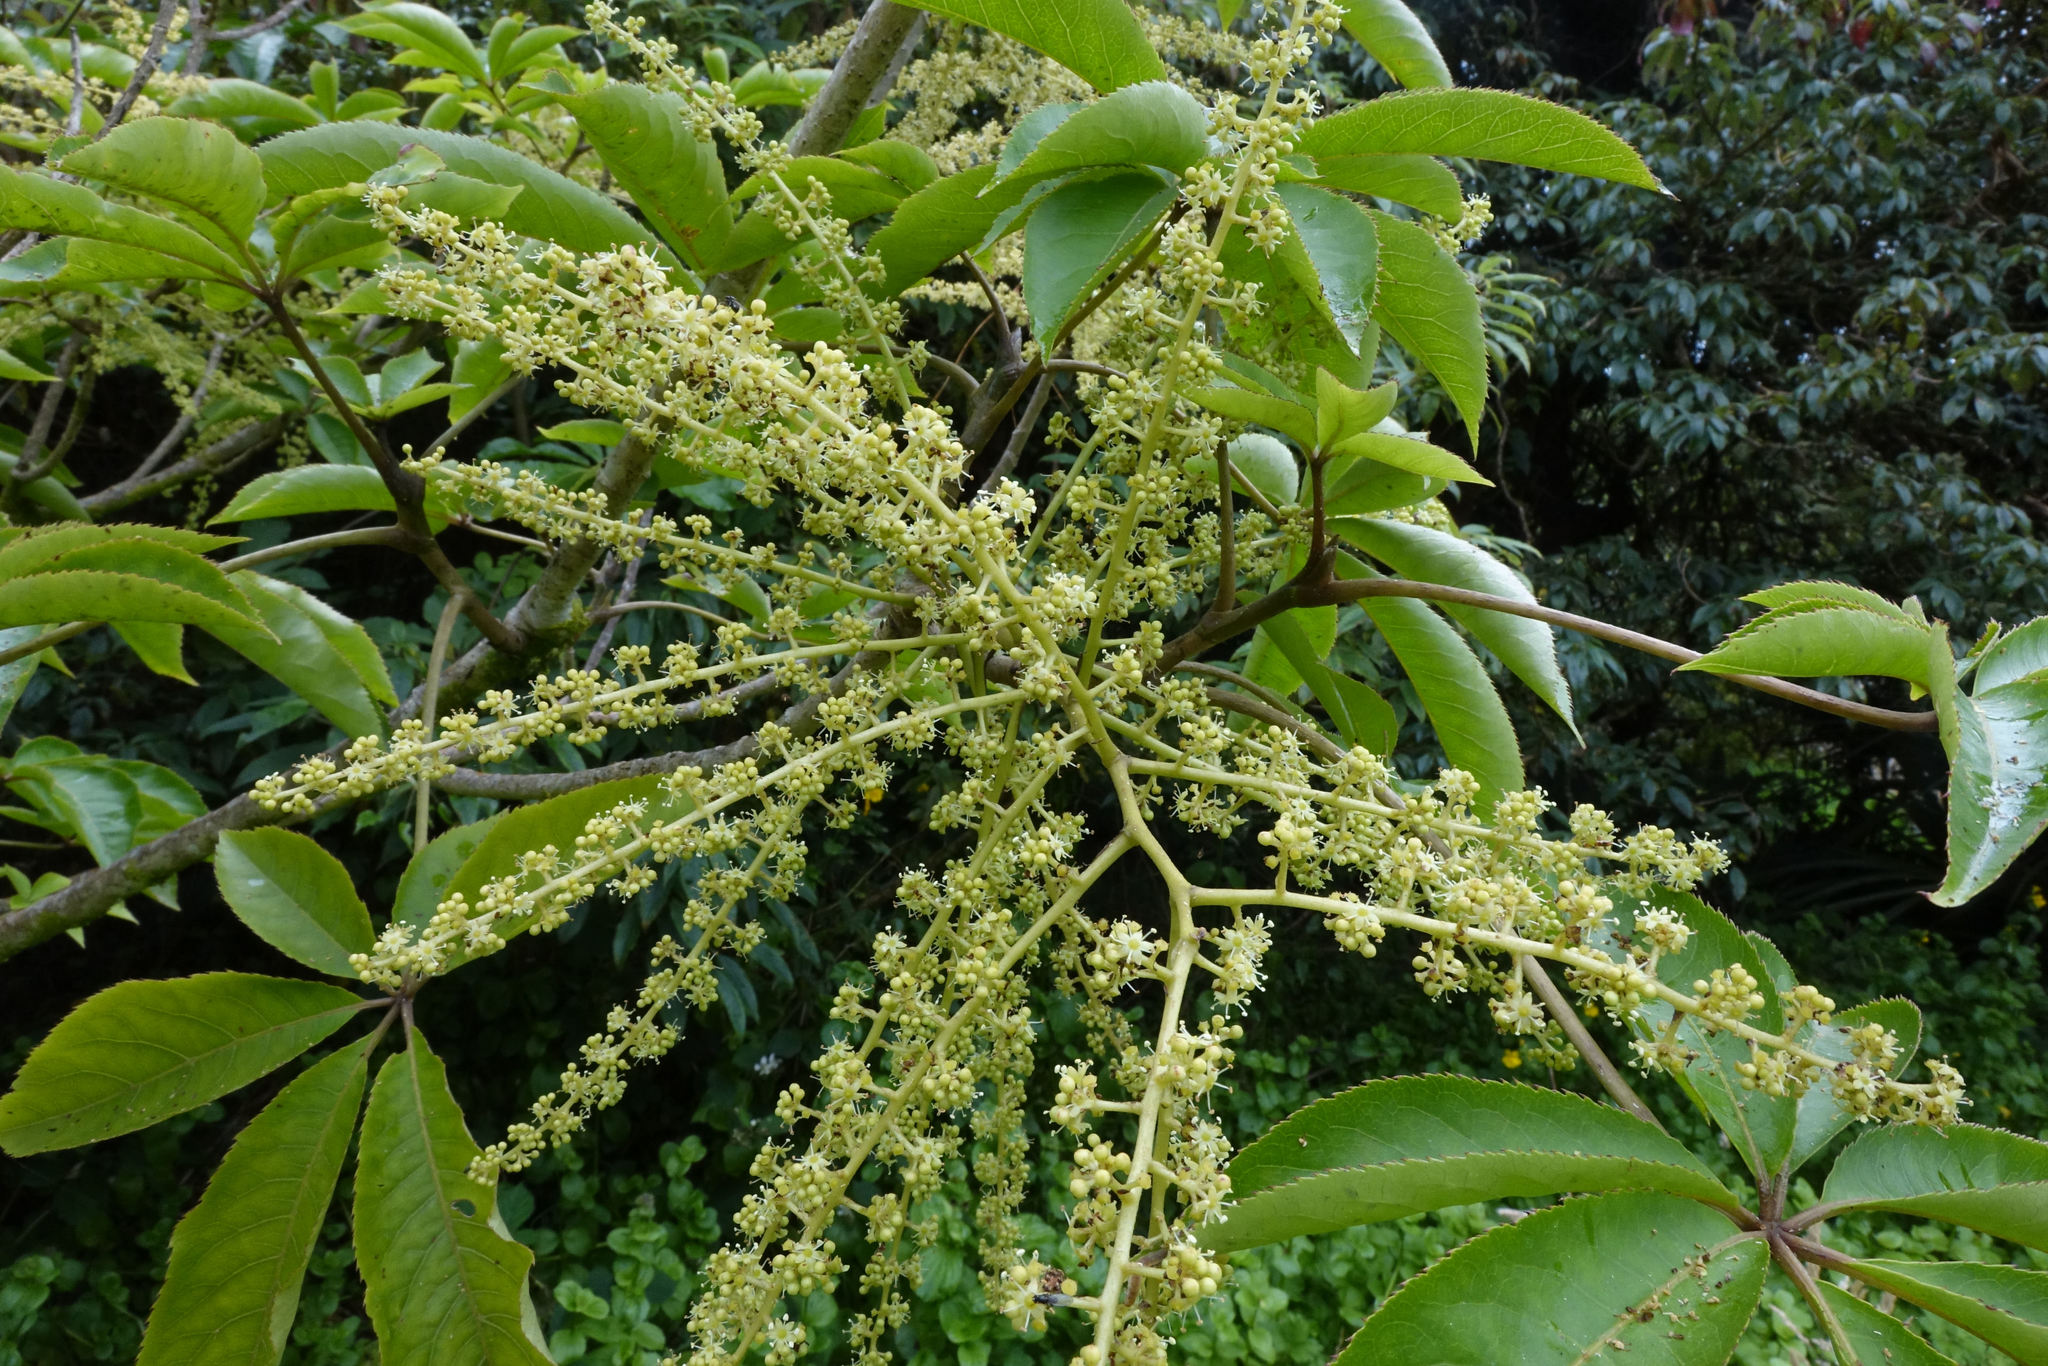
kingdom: Plantae
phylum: Tracheophyta
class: Magnoliopsida
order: Apiales
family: Araliaceae
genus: Schefflera
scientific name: Schefflera digitata
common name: Pate
